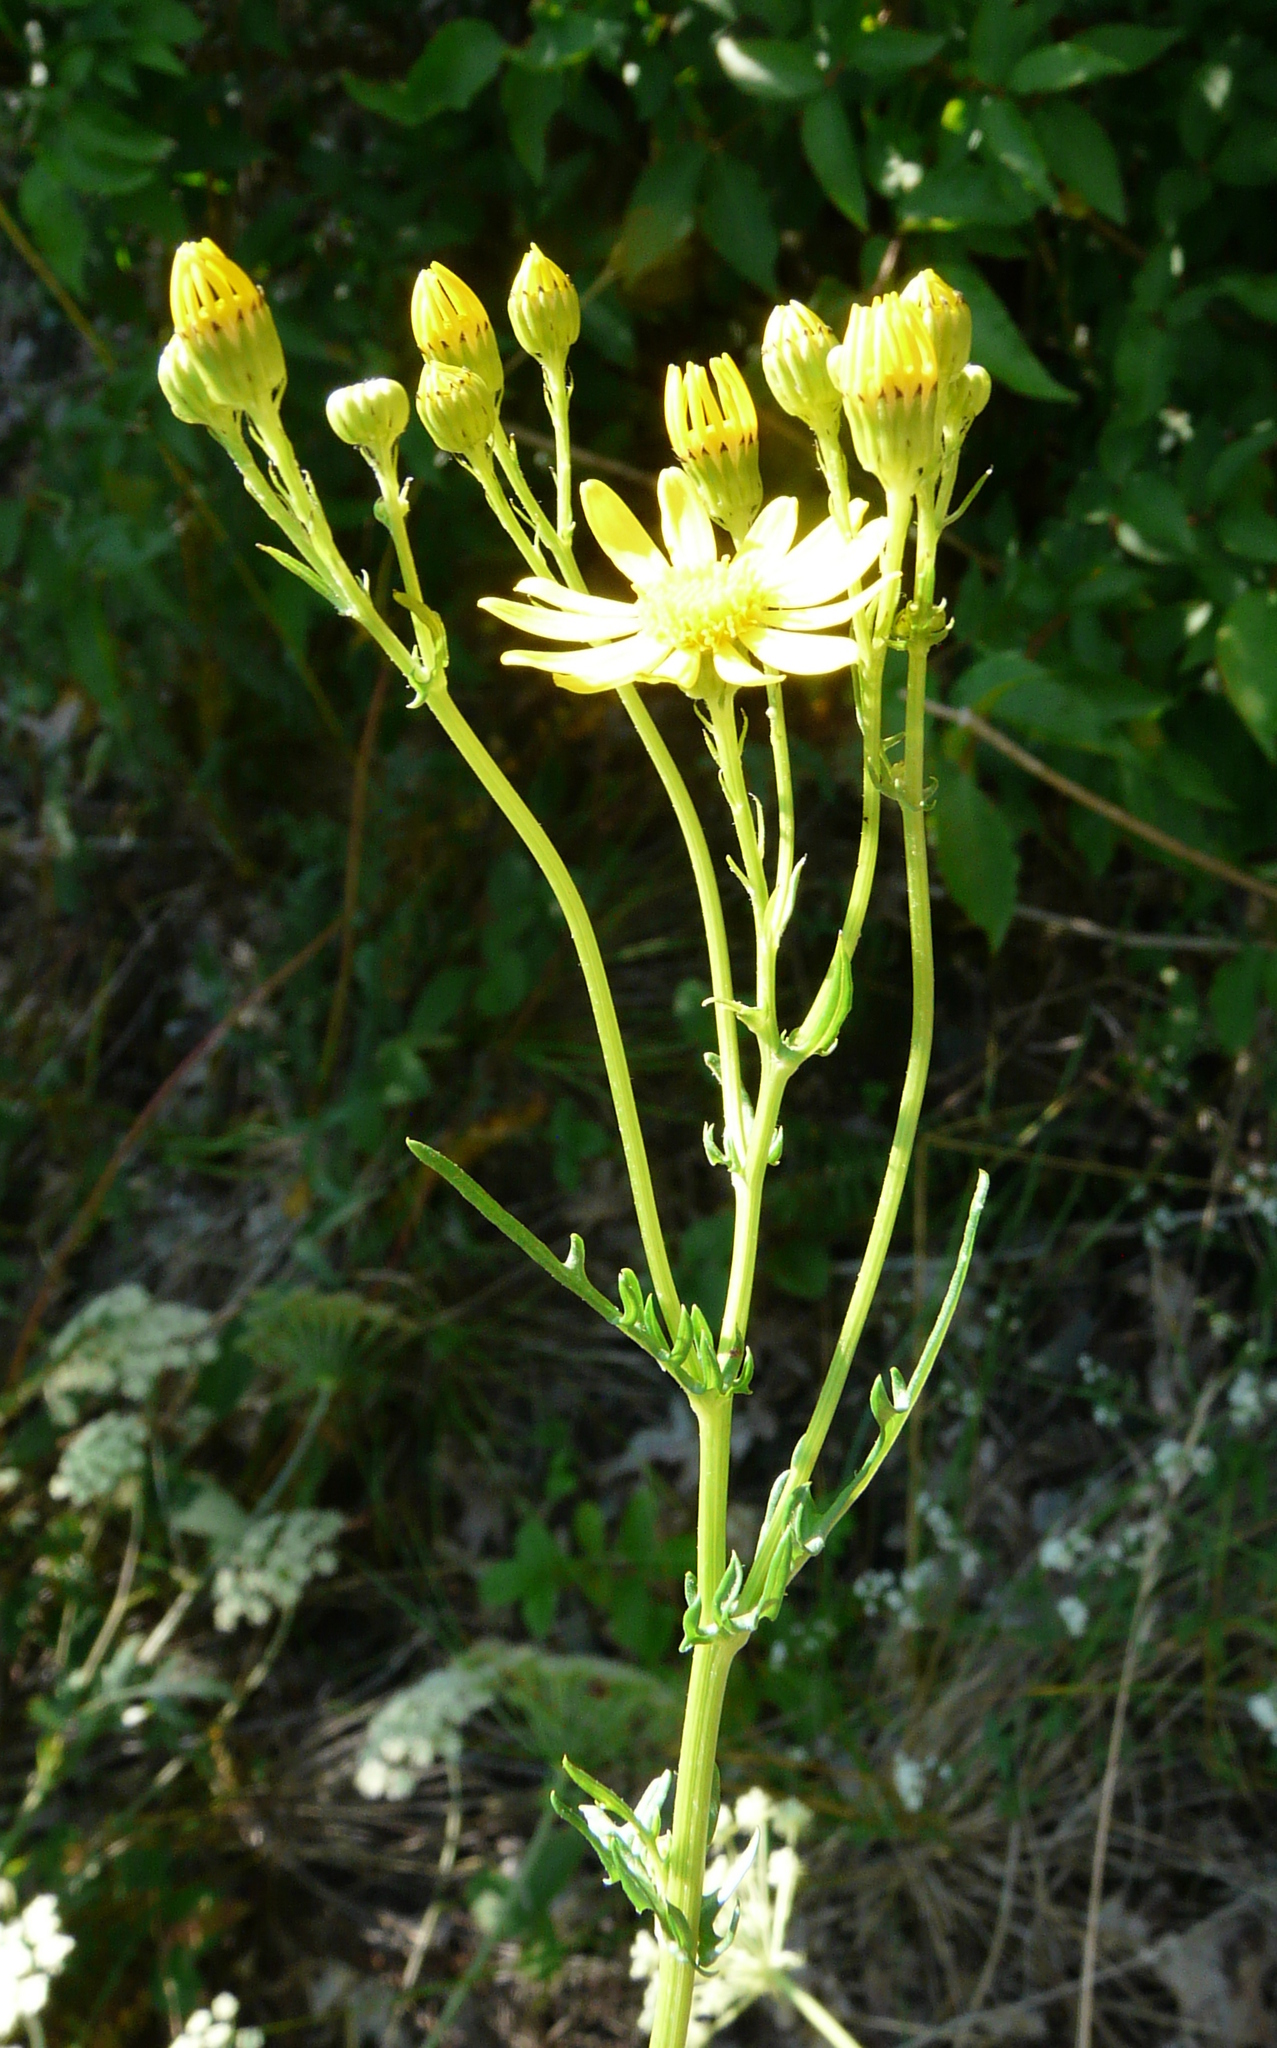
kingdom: Plantae
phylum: Tracheophyta
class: Magnoliopsida
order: Asterales
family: Asteraceae
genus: Jacobaea
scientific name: Jacobaea vulgaris
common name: Stinking willie
